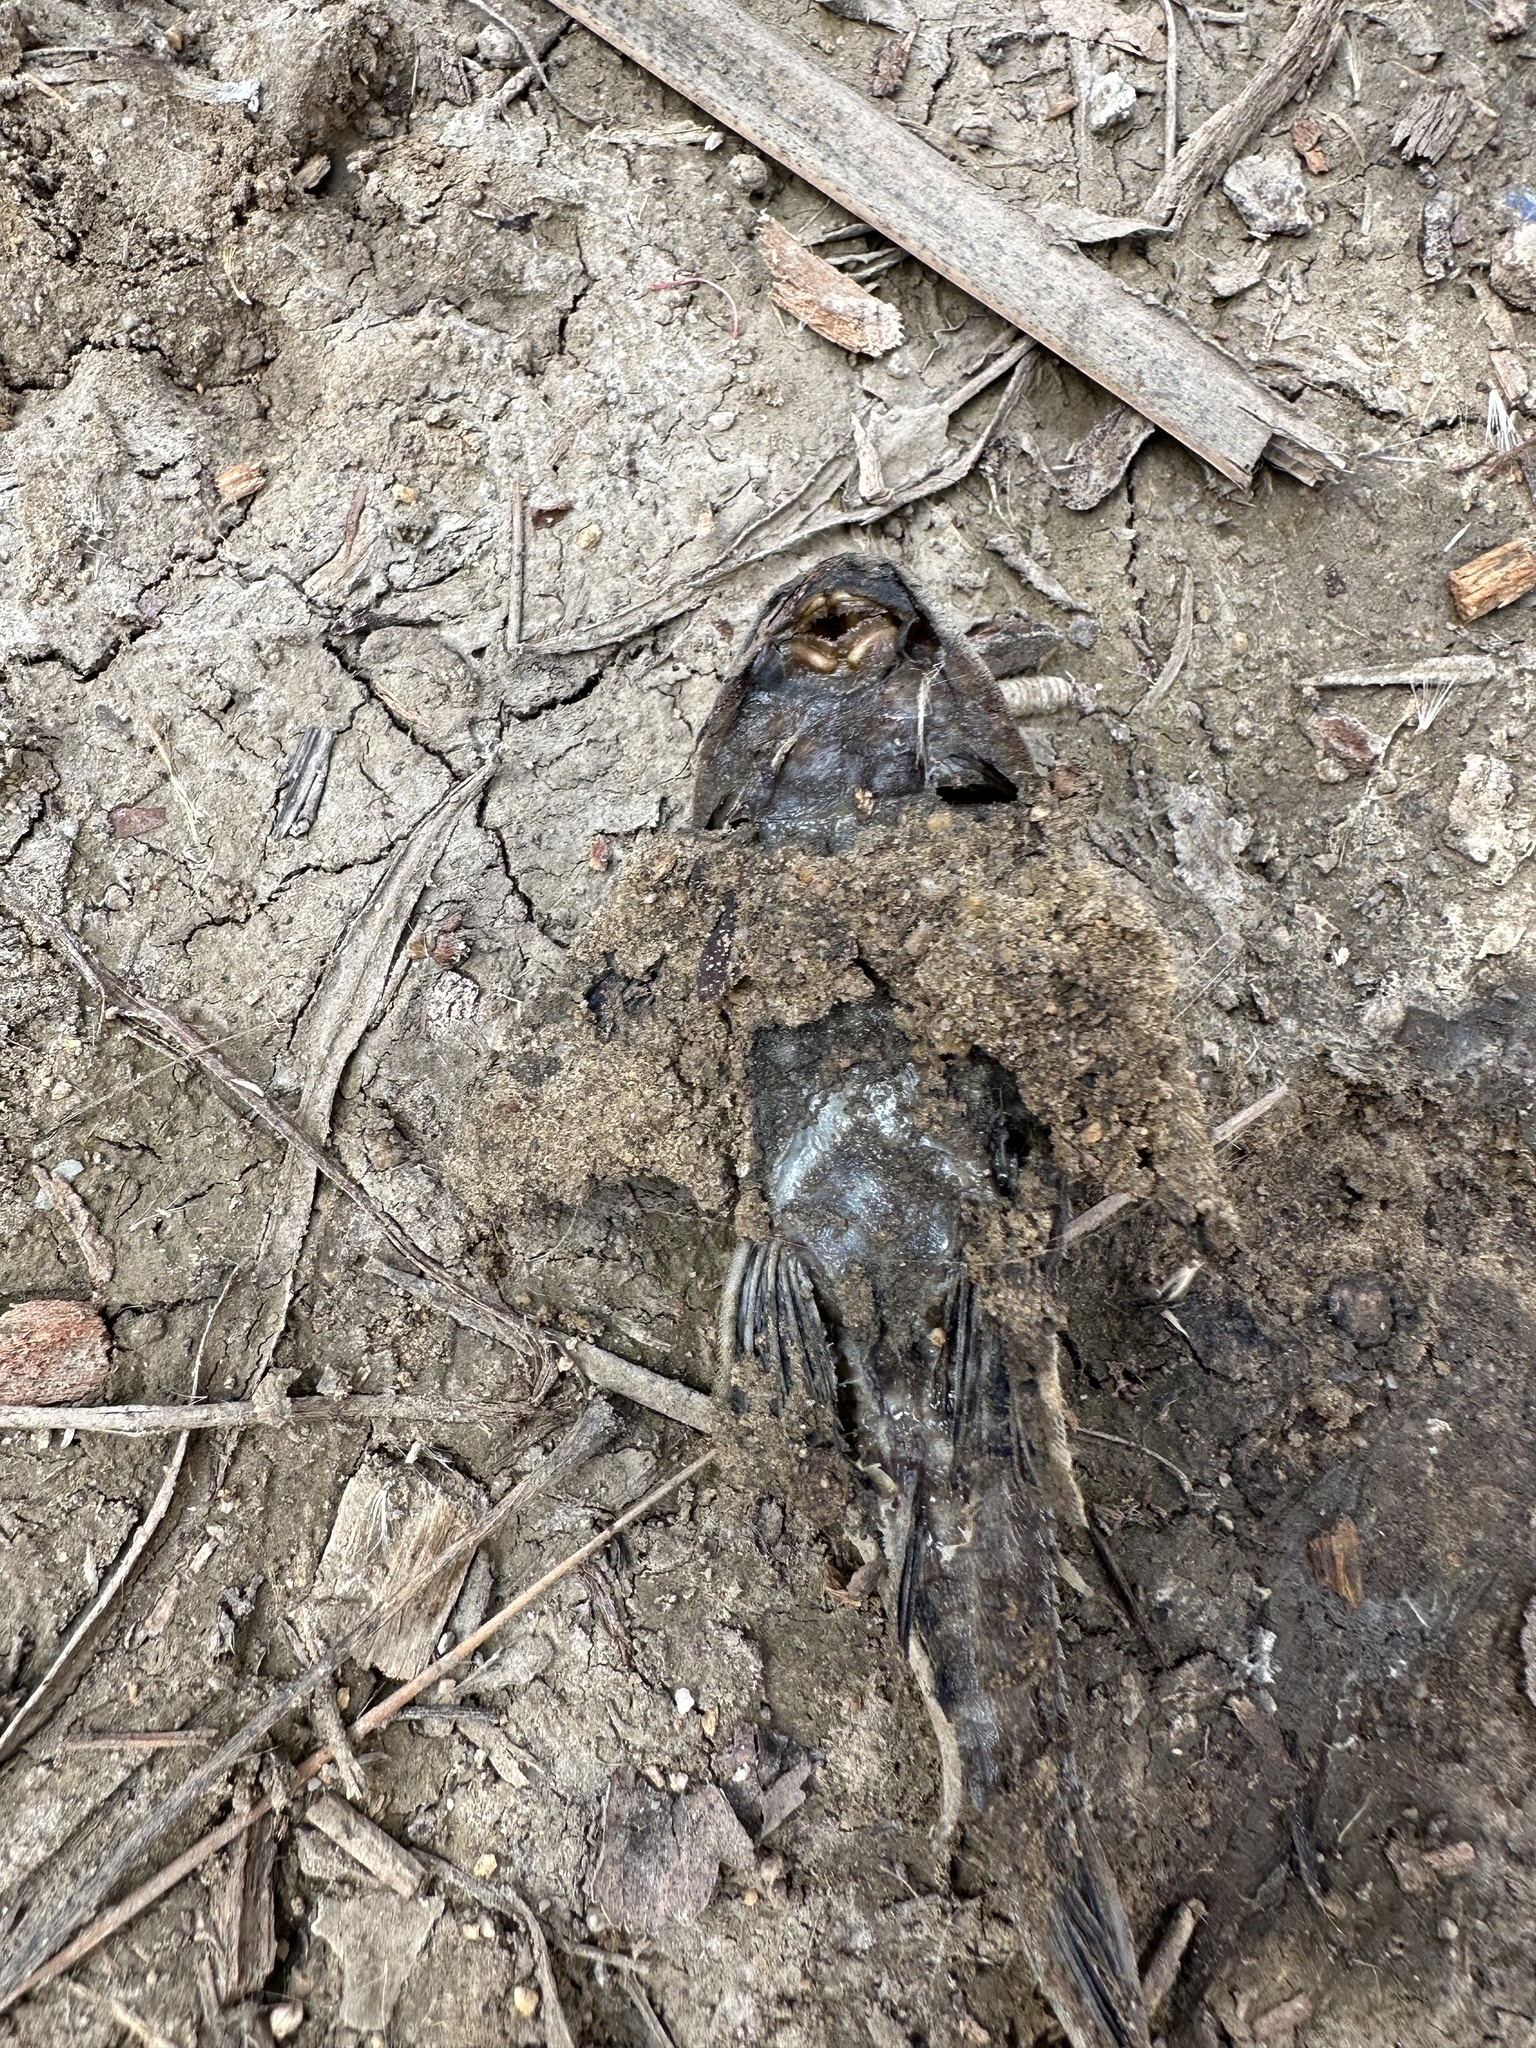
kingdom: Animalia
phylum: Chordata
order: Siluriformes
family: Loricariidae
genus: Pterygoplichthys
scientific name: Pterygoplichthys
